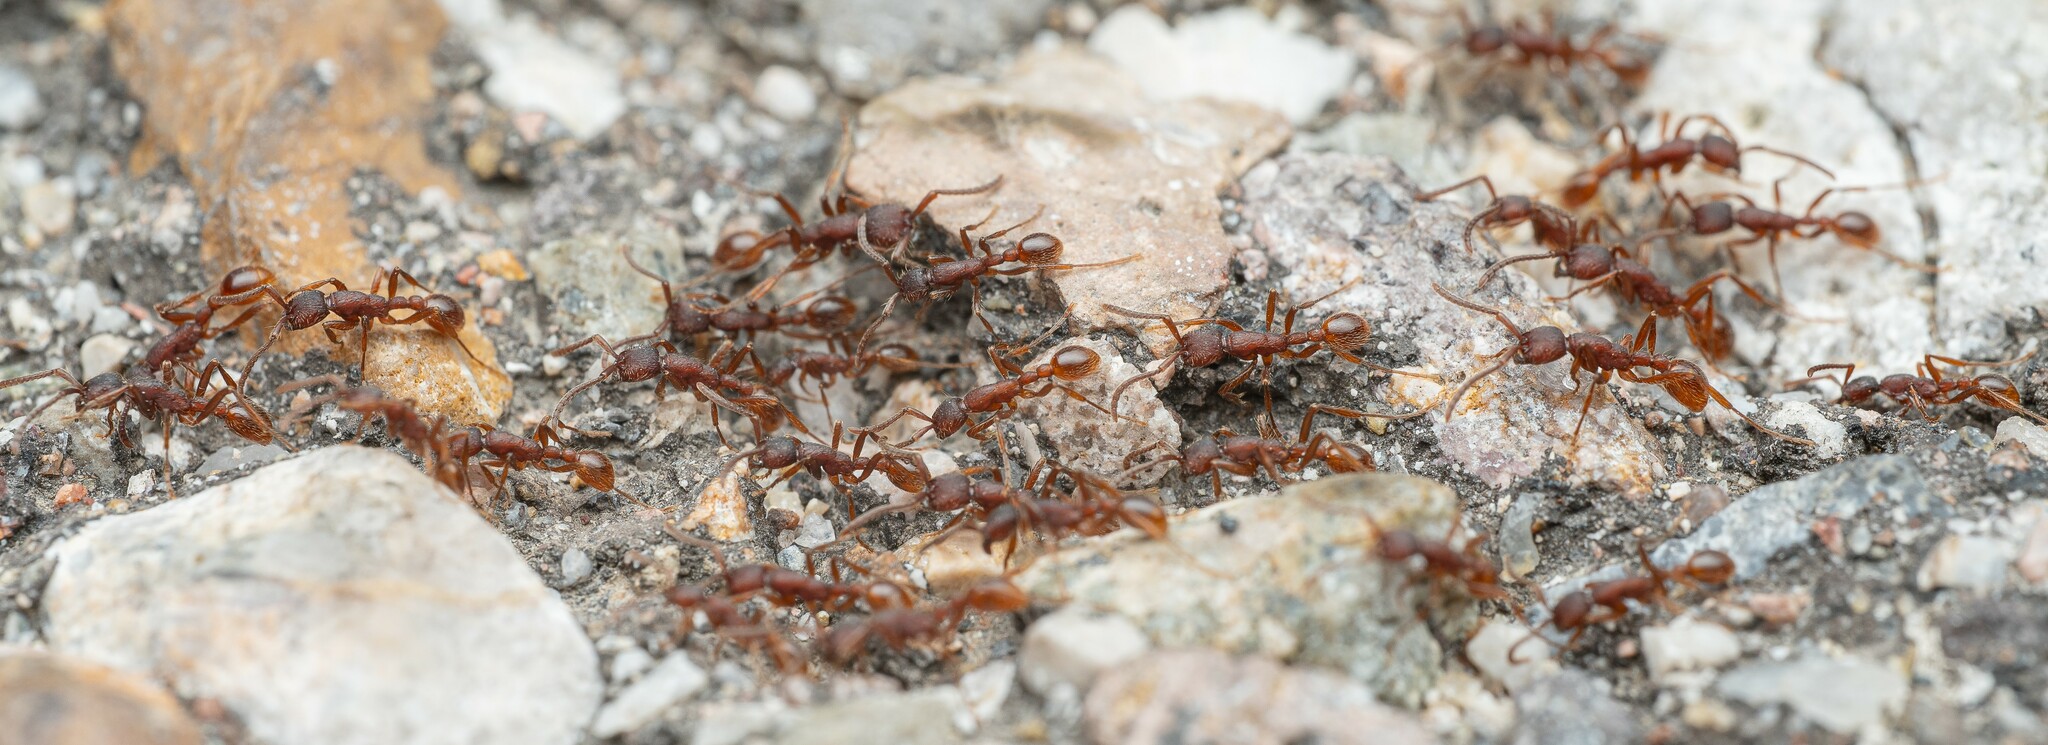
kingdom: Animalia
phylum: Arthropoda
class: Insecta
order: Hymenoptera
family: Formicidae
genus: Neivamyrmex
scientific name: Neivamyrmex nigrescens
